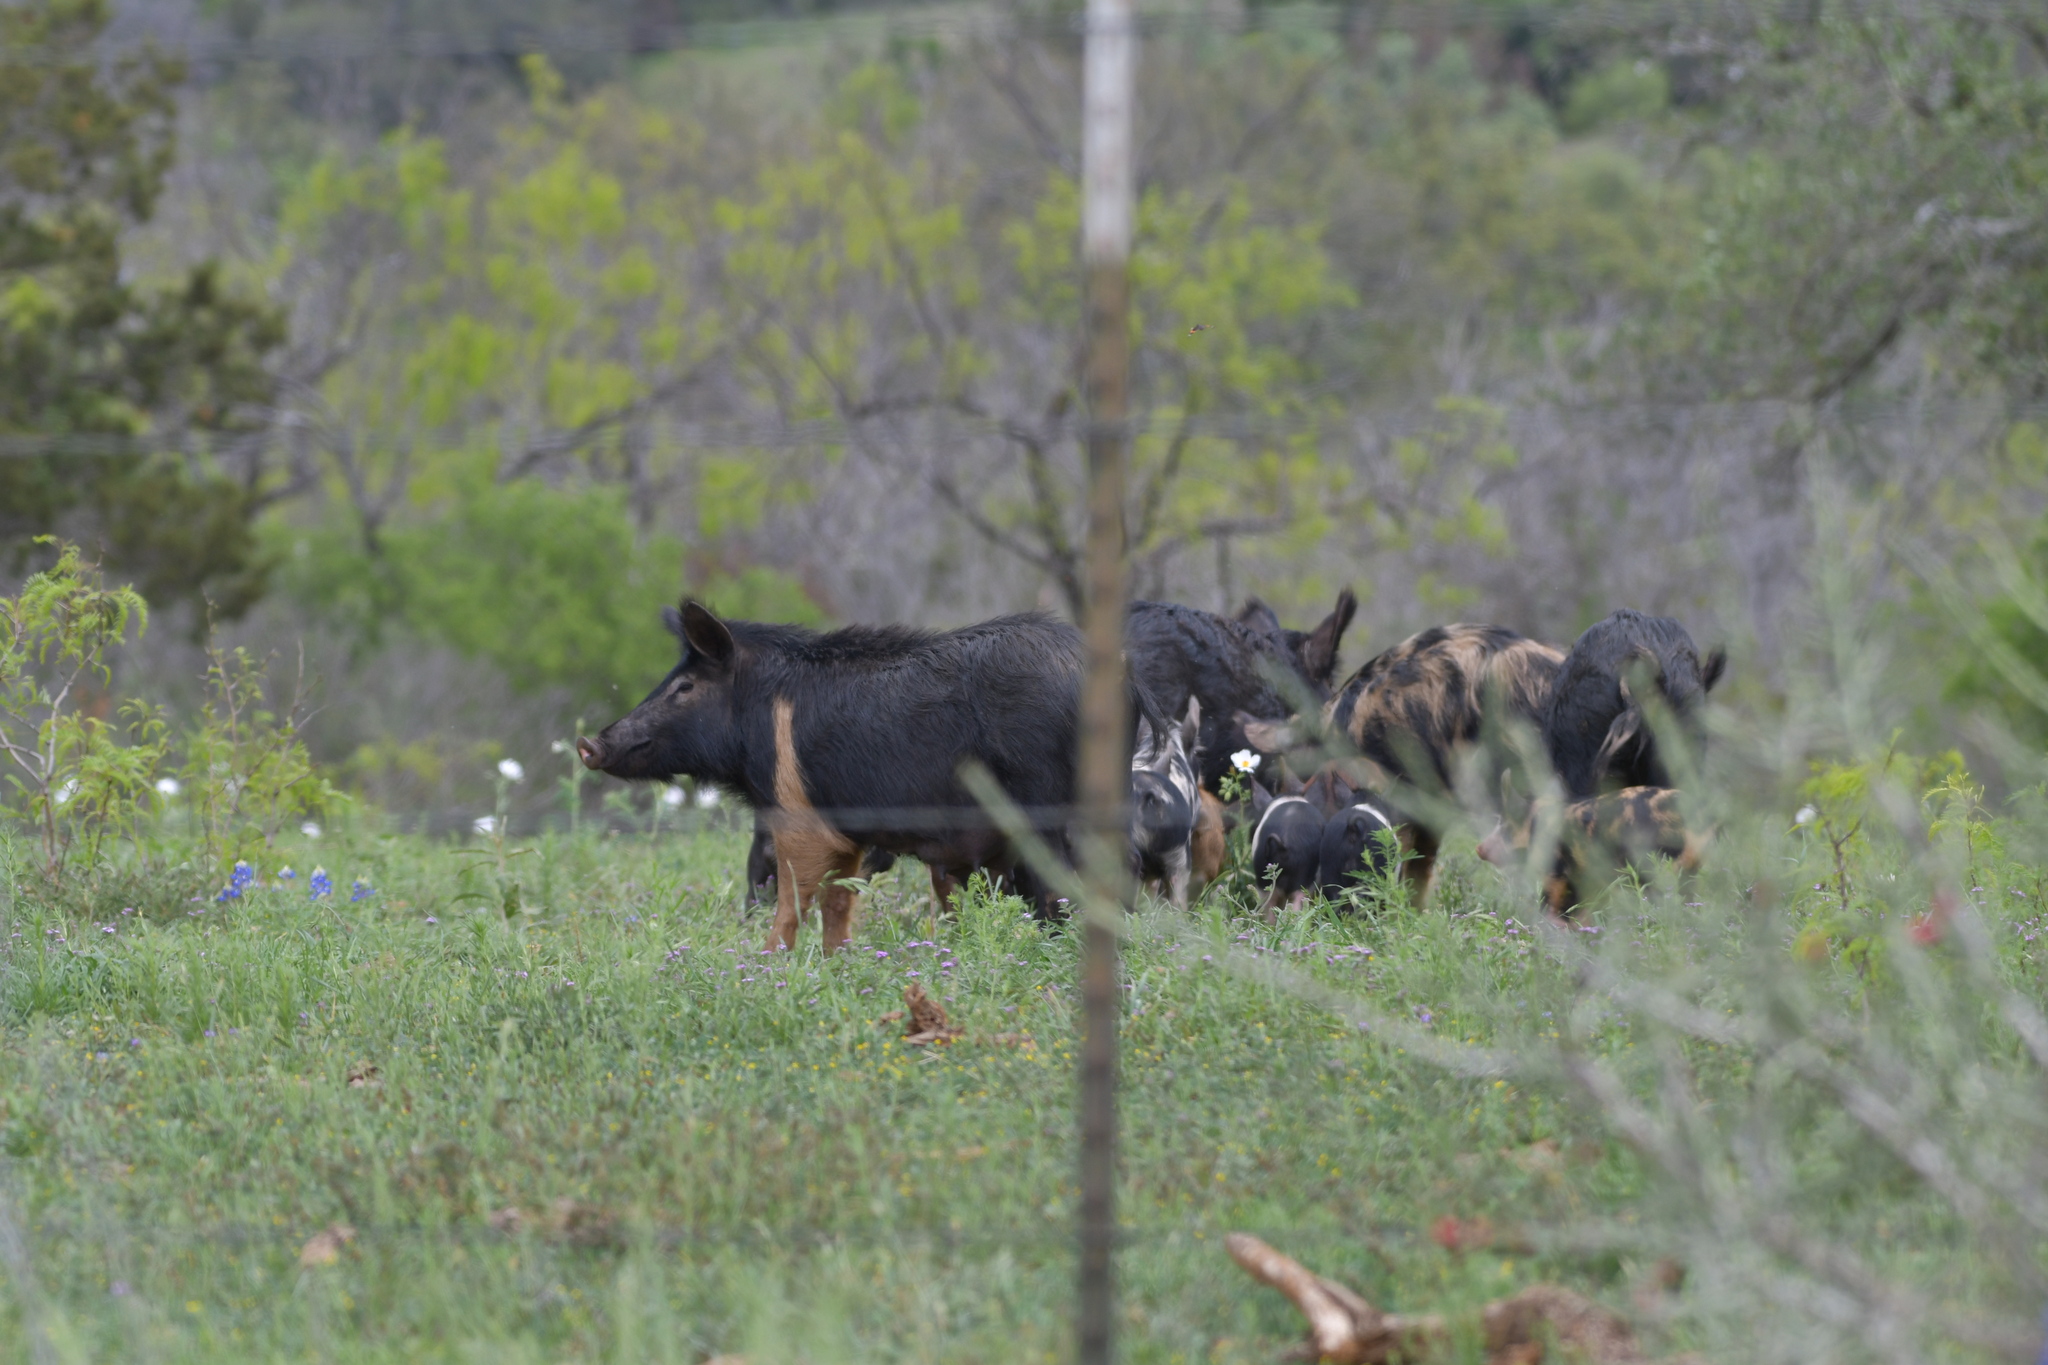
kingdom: Animalia
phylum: Chordata
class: Mammalia
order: Artiodactyla
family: Suidae
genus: Sus
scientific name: Sus scrofa
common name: Wild boar
